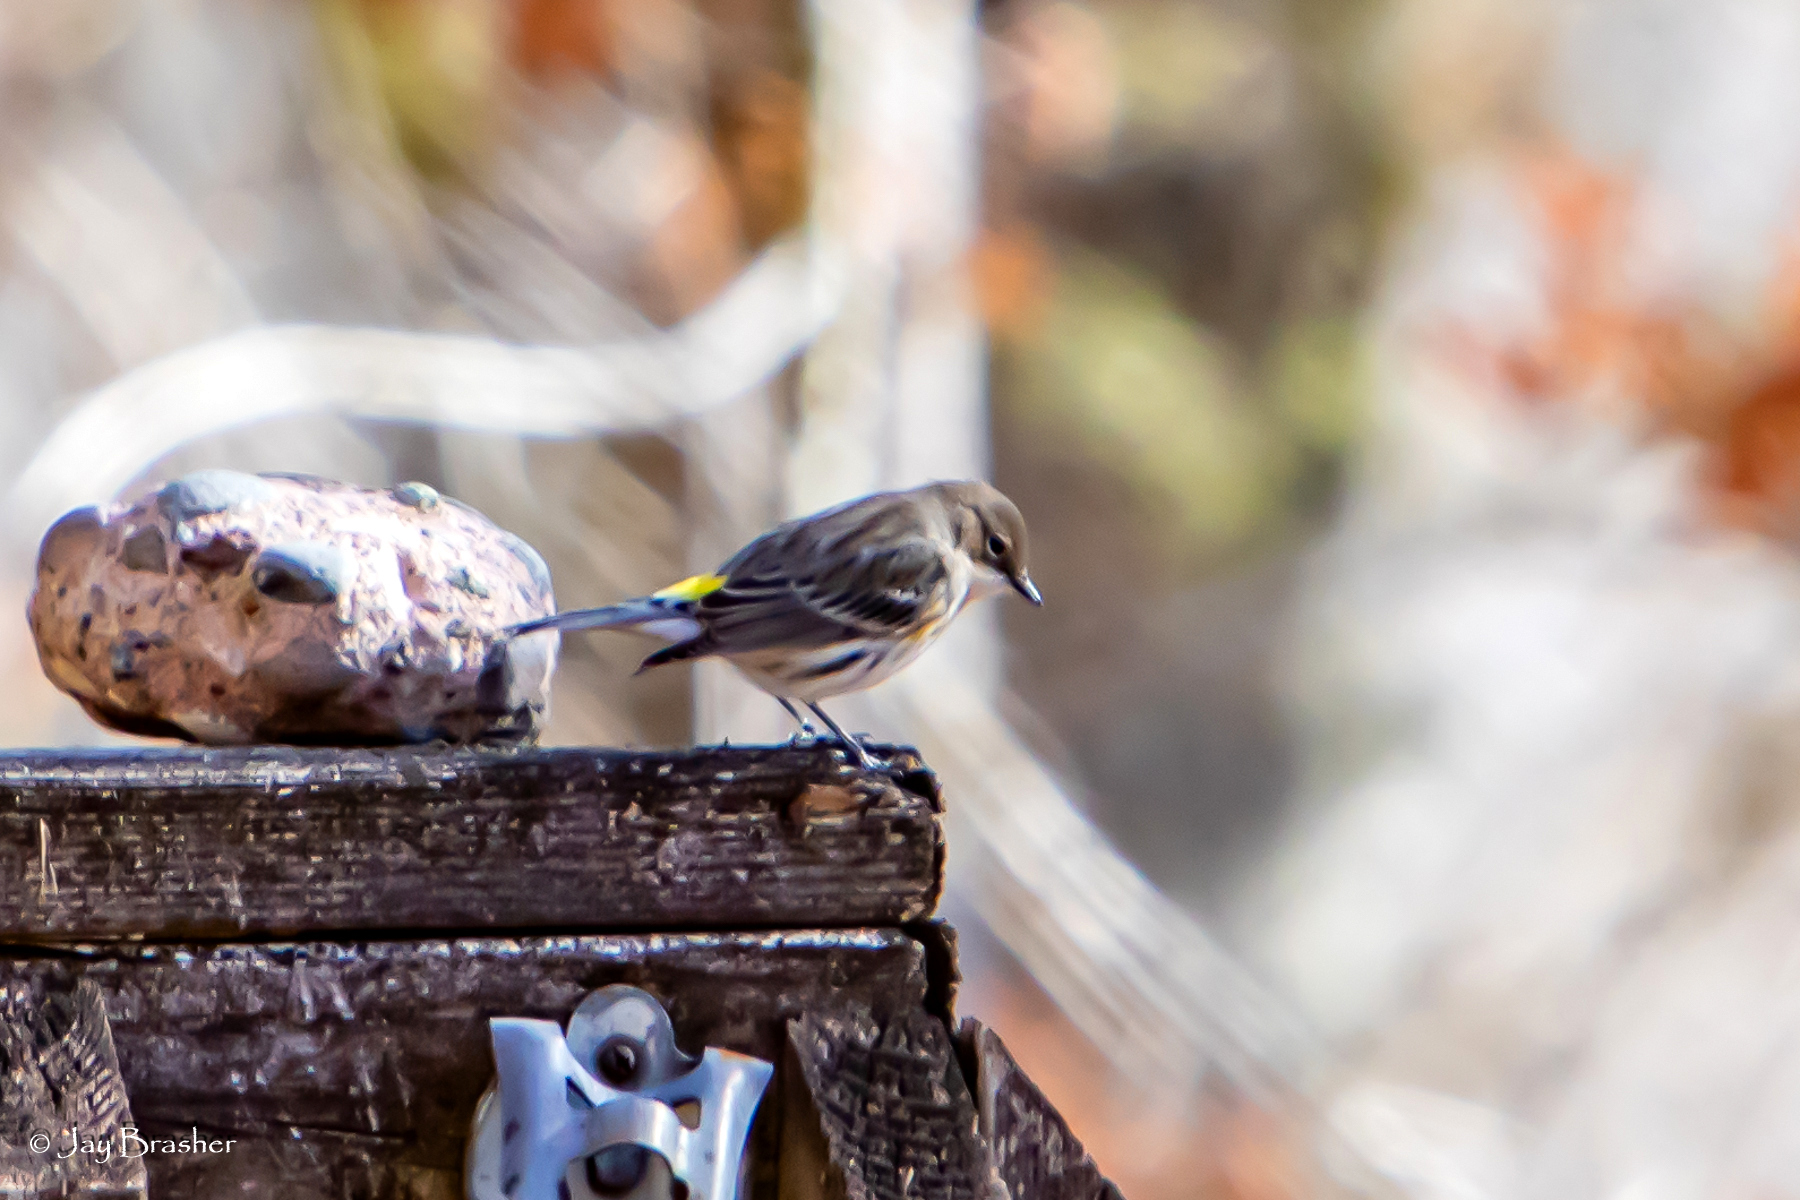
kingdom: Animalia
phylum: Chordata
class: Aves
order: Passeriformes
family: Parulidae
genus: Setophaga
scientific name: Setophaga coronata
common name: Myrtle warbler
